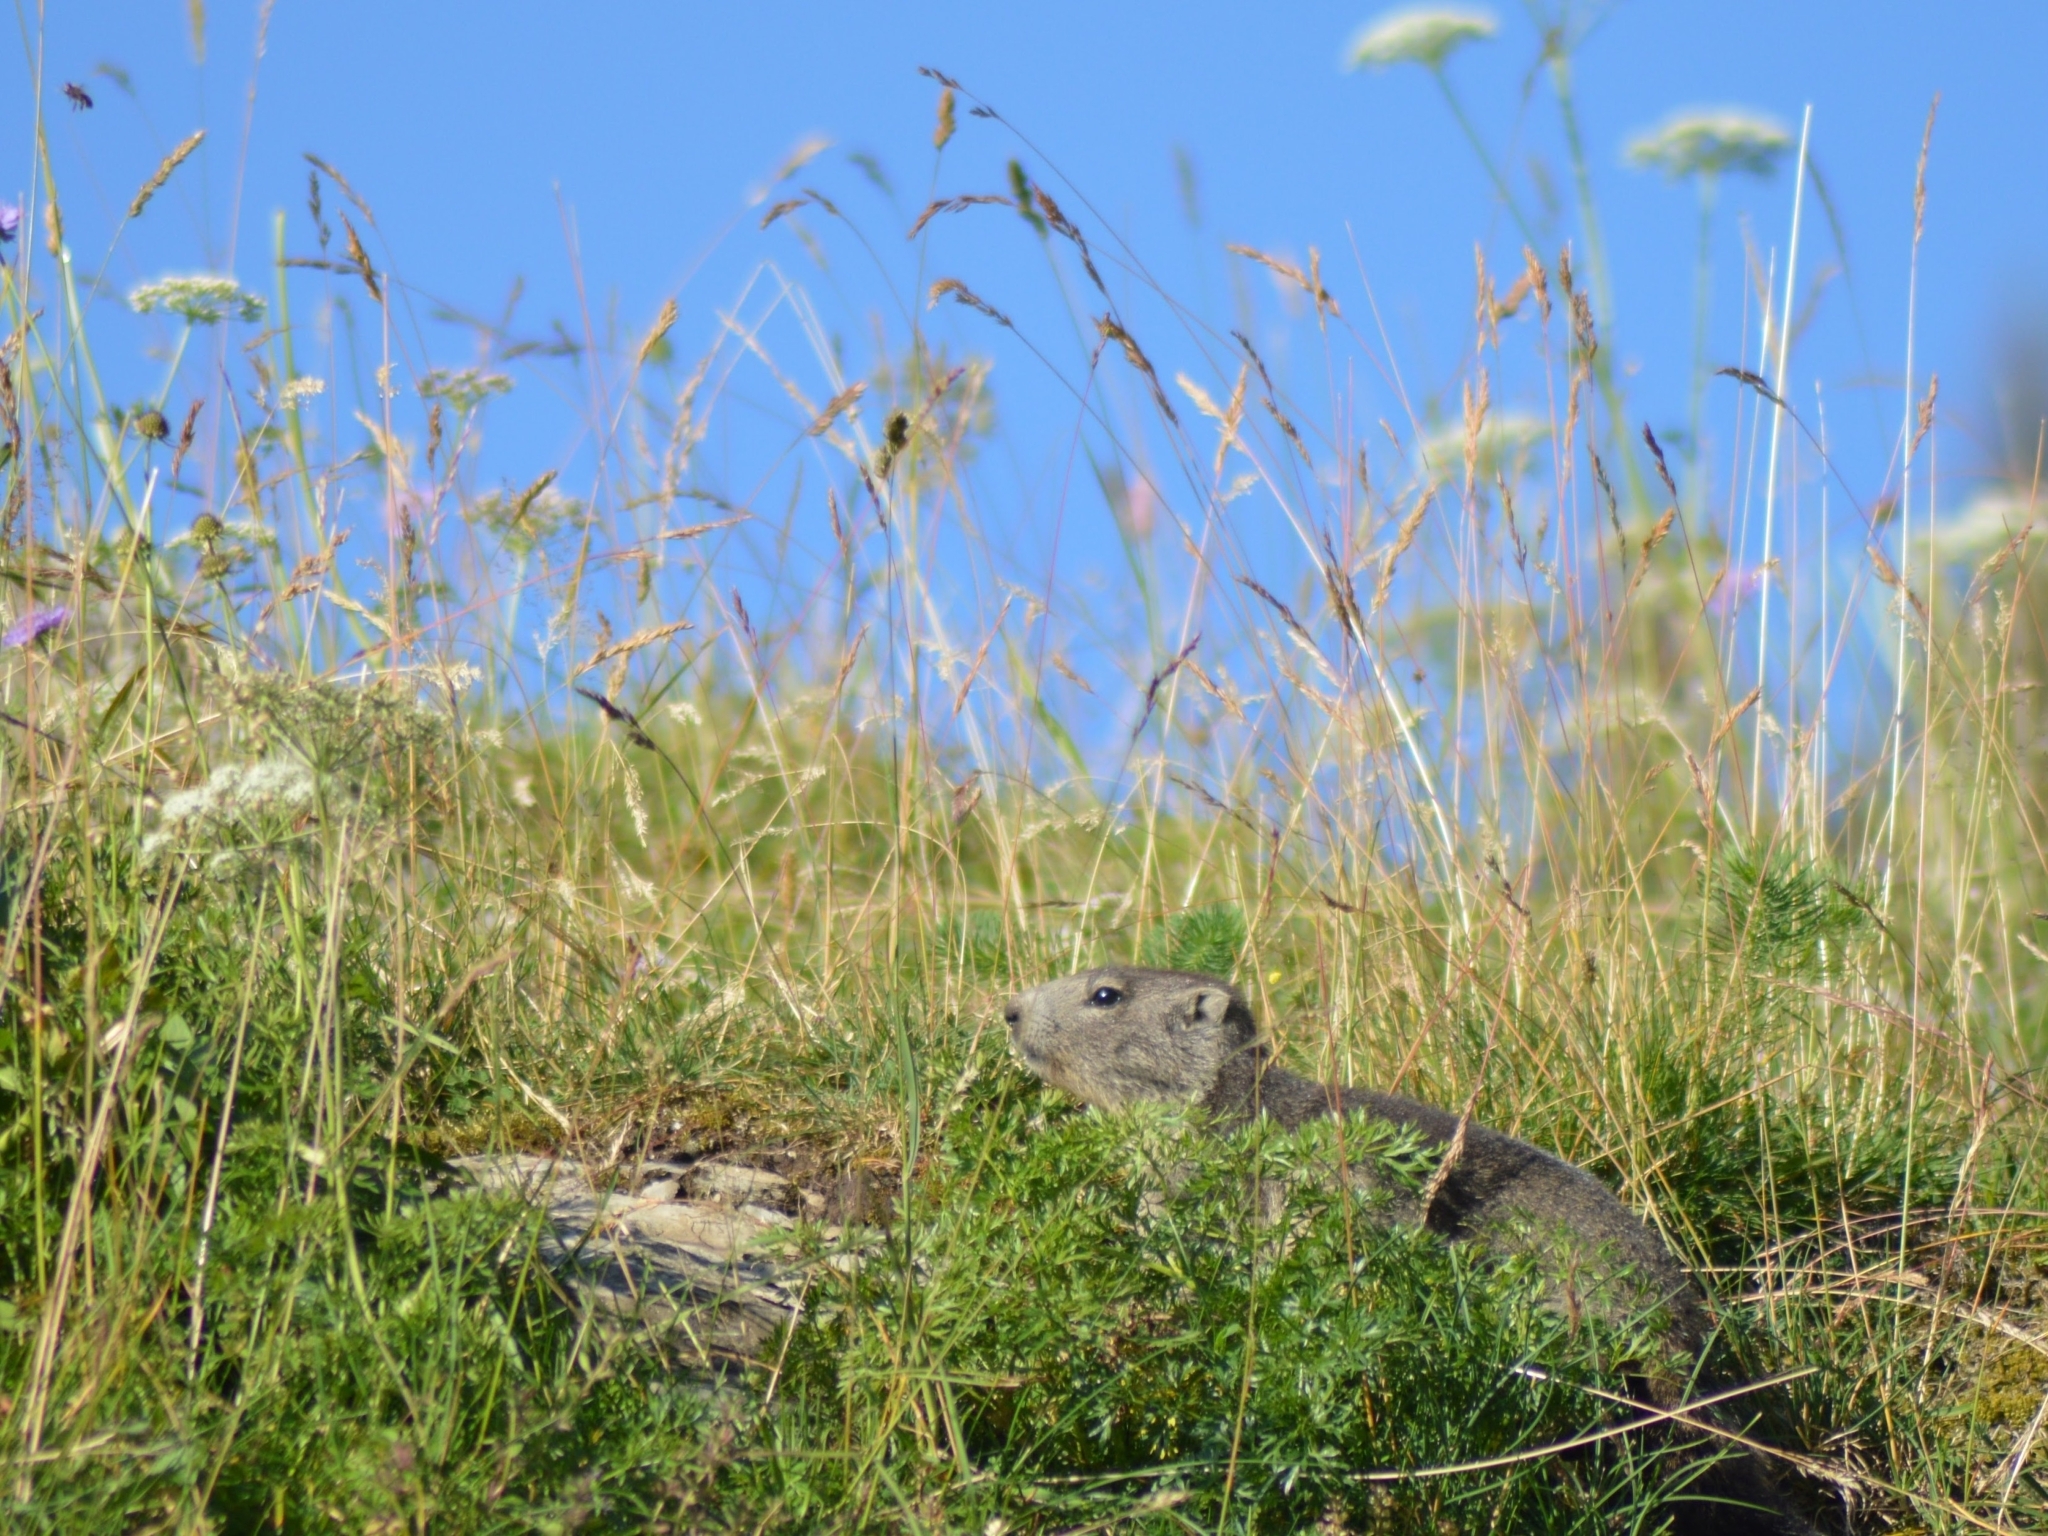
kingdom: Animalia
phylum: Chordata
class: Mammalia
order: Rodentia
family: Sciuridae
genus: Marmota
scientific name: Marmota marmota
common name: Alpine marmot
